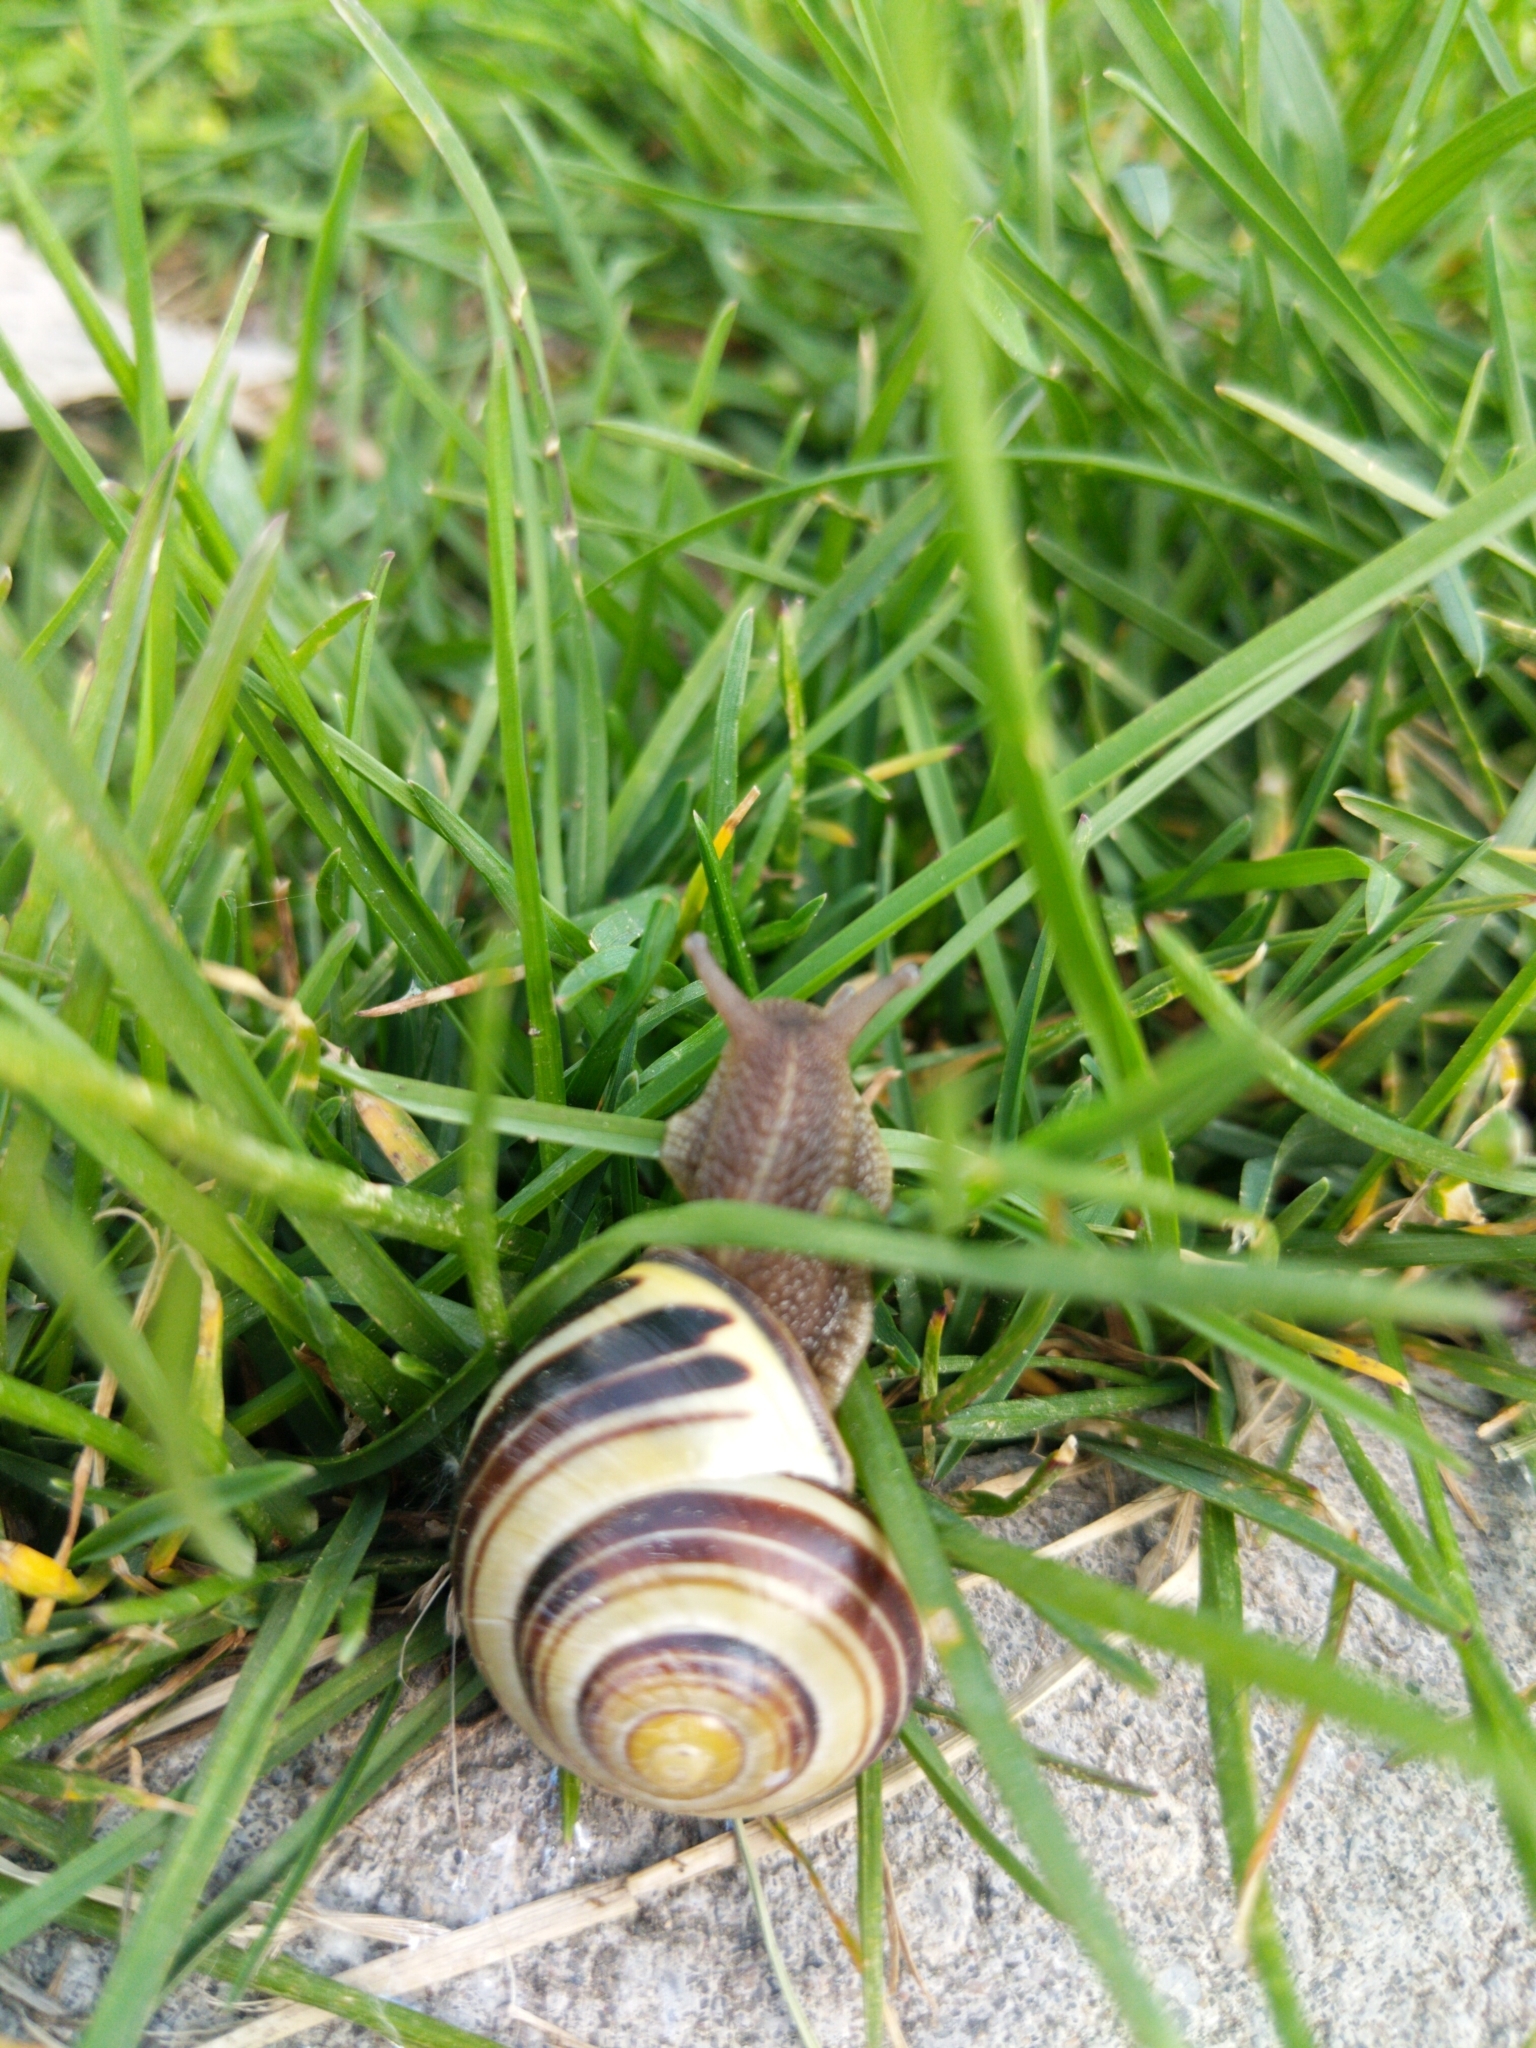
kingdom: Animalia
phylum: Mollusca
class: Gastropoda
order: Stylommatophora
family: Helicidae
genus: Cepaea
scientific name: Cepaea nemoralis
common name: Grovesnail
